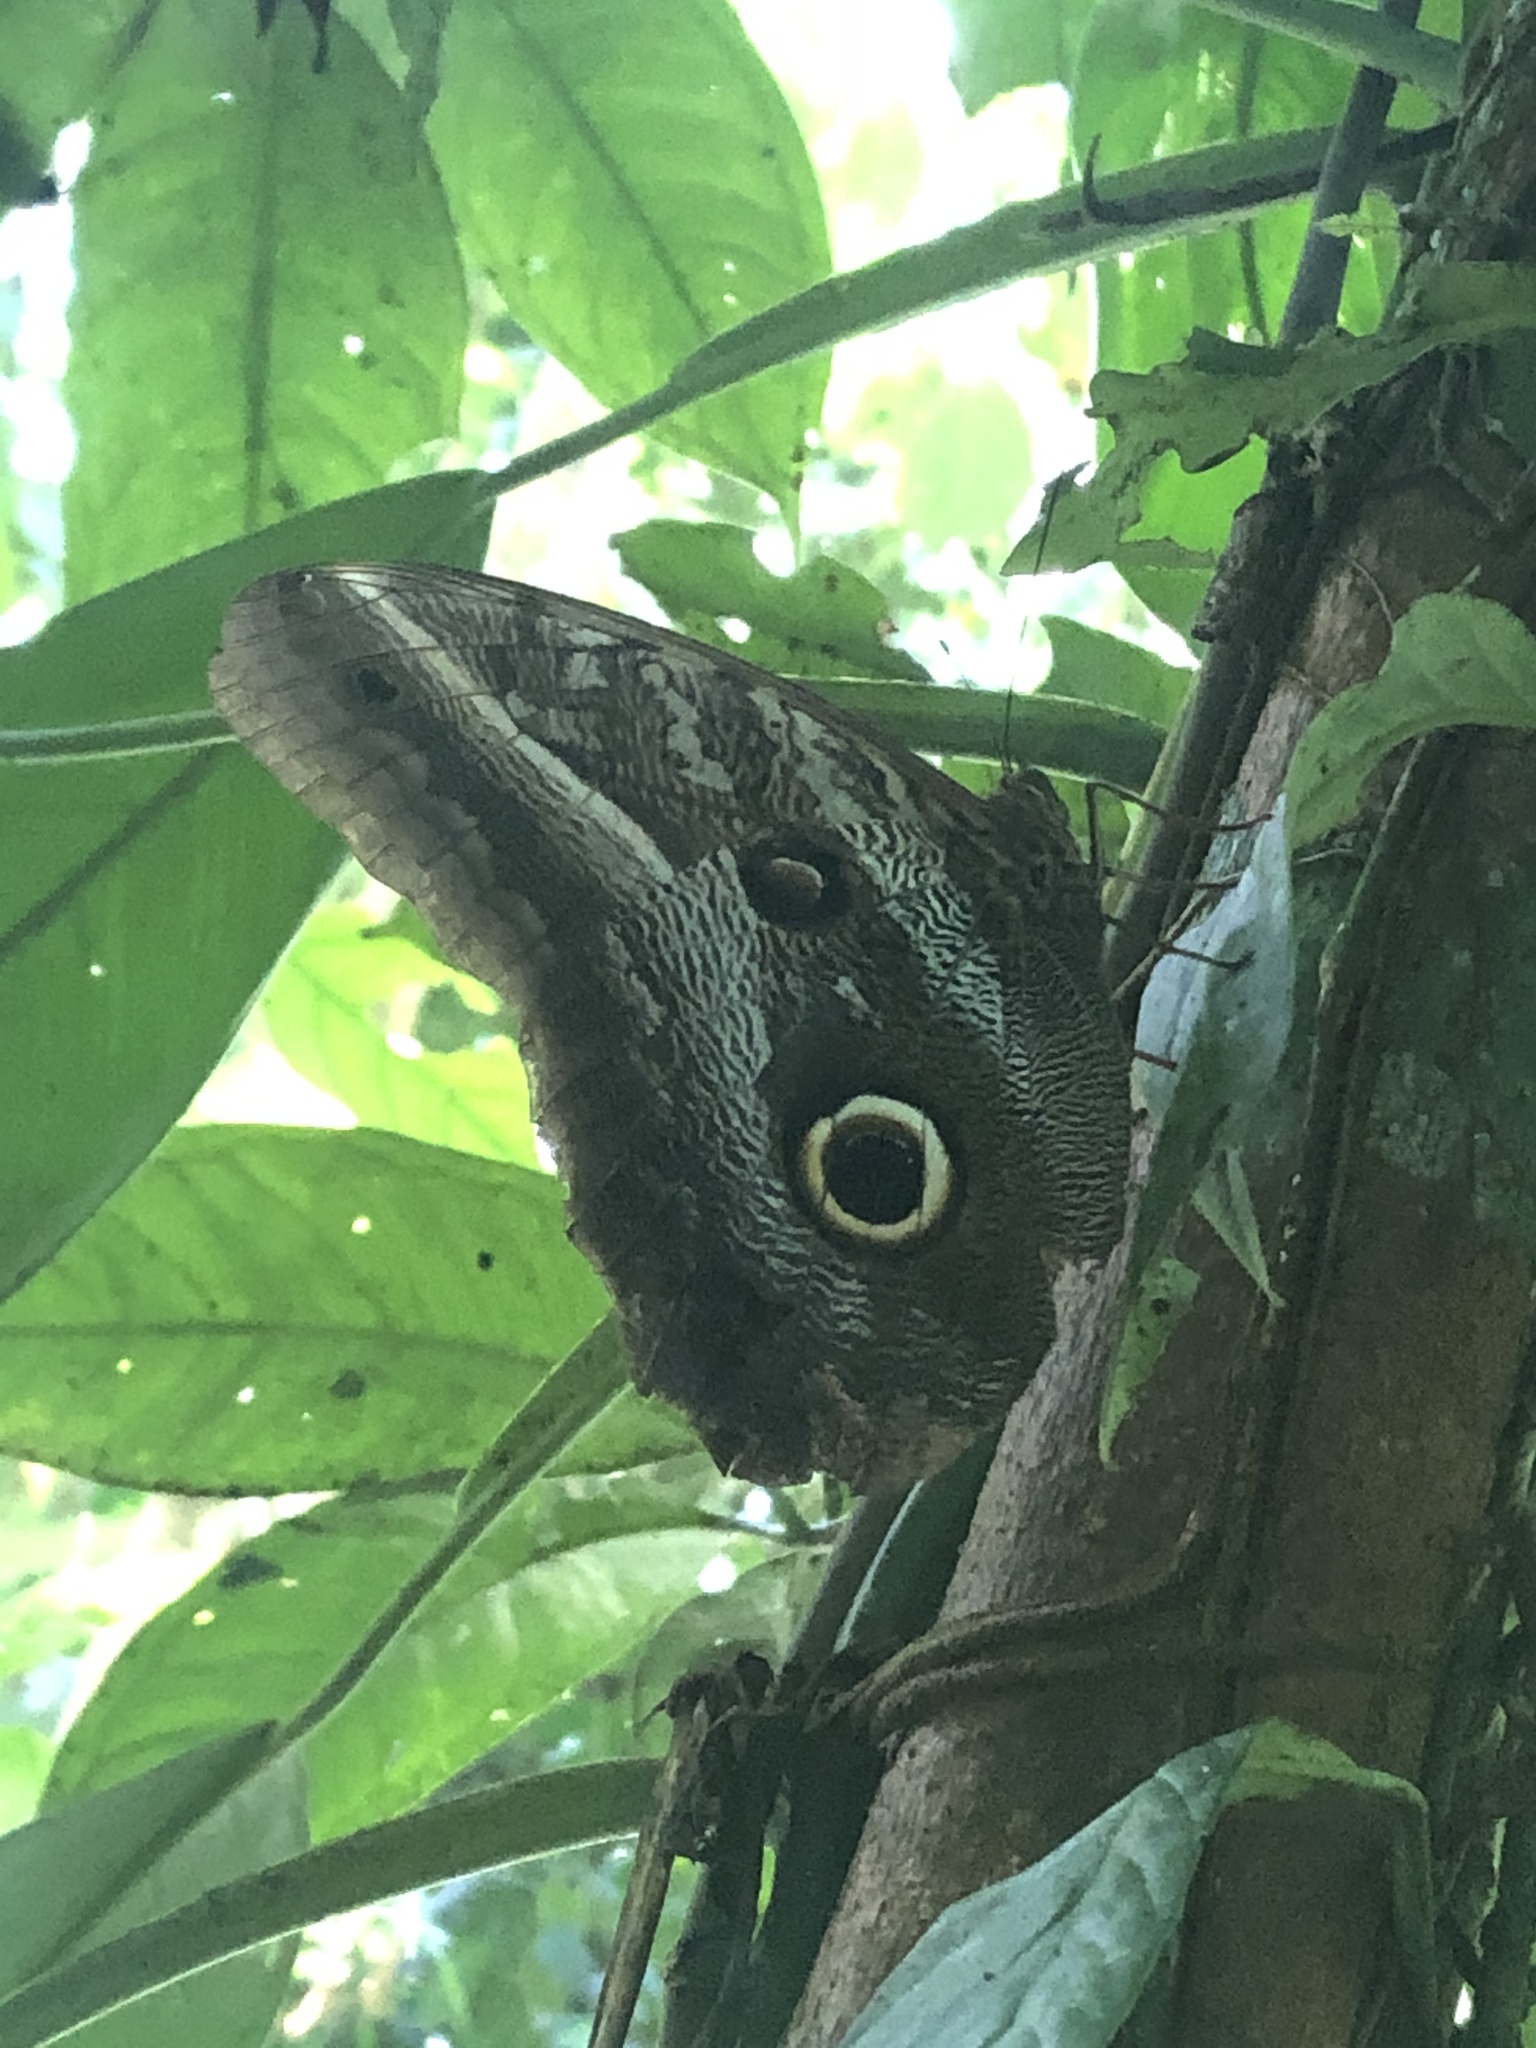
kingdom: Animalia
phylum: Arthropoda
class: Insecta
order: Lepidoptera
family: Nymphalidae
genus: Caligo
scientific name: Caligo euphorbus
